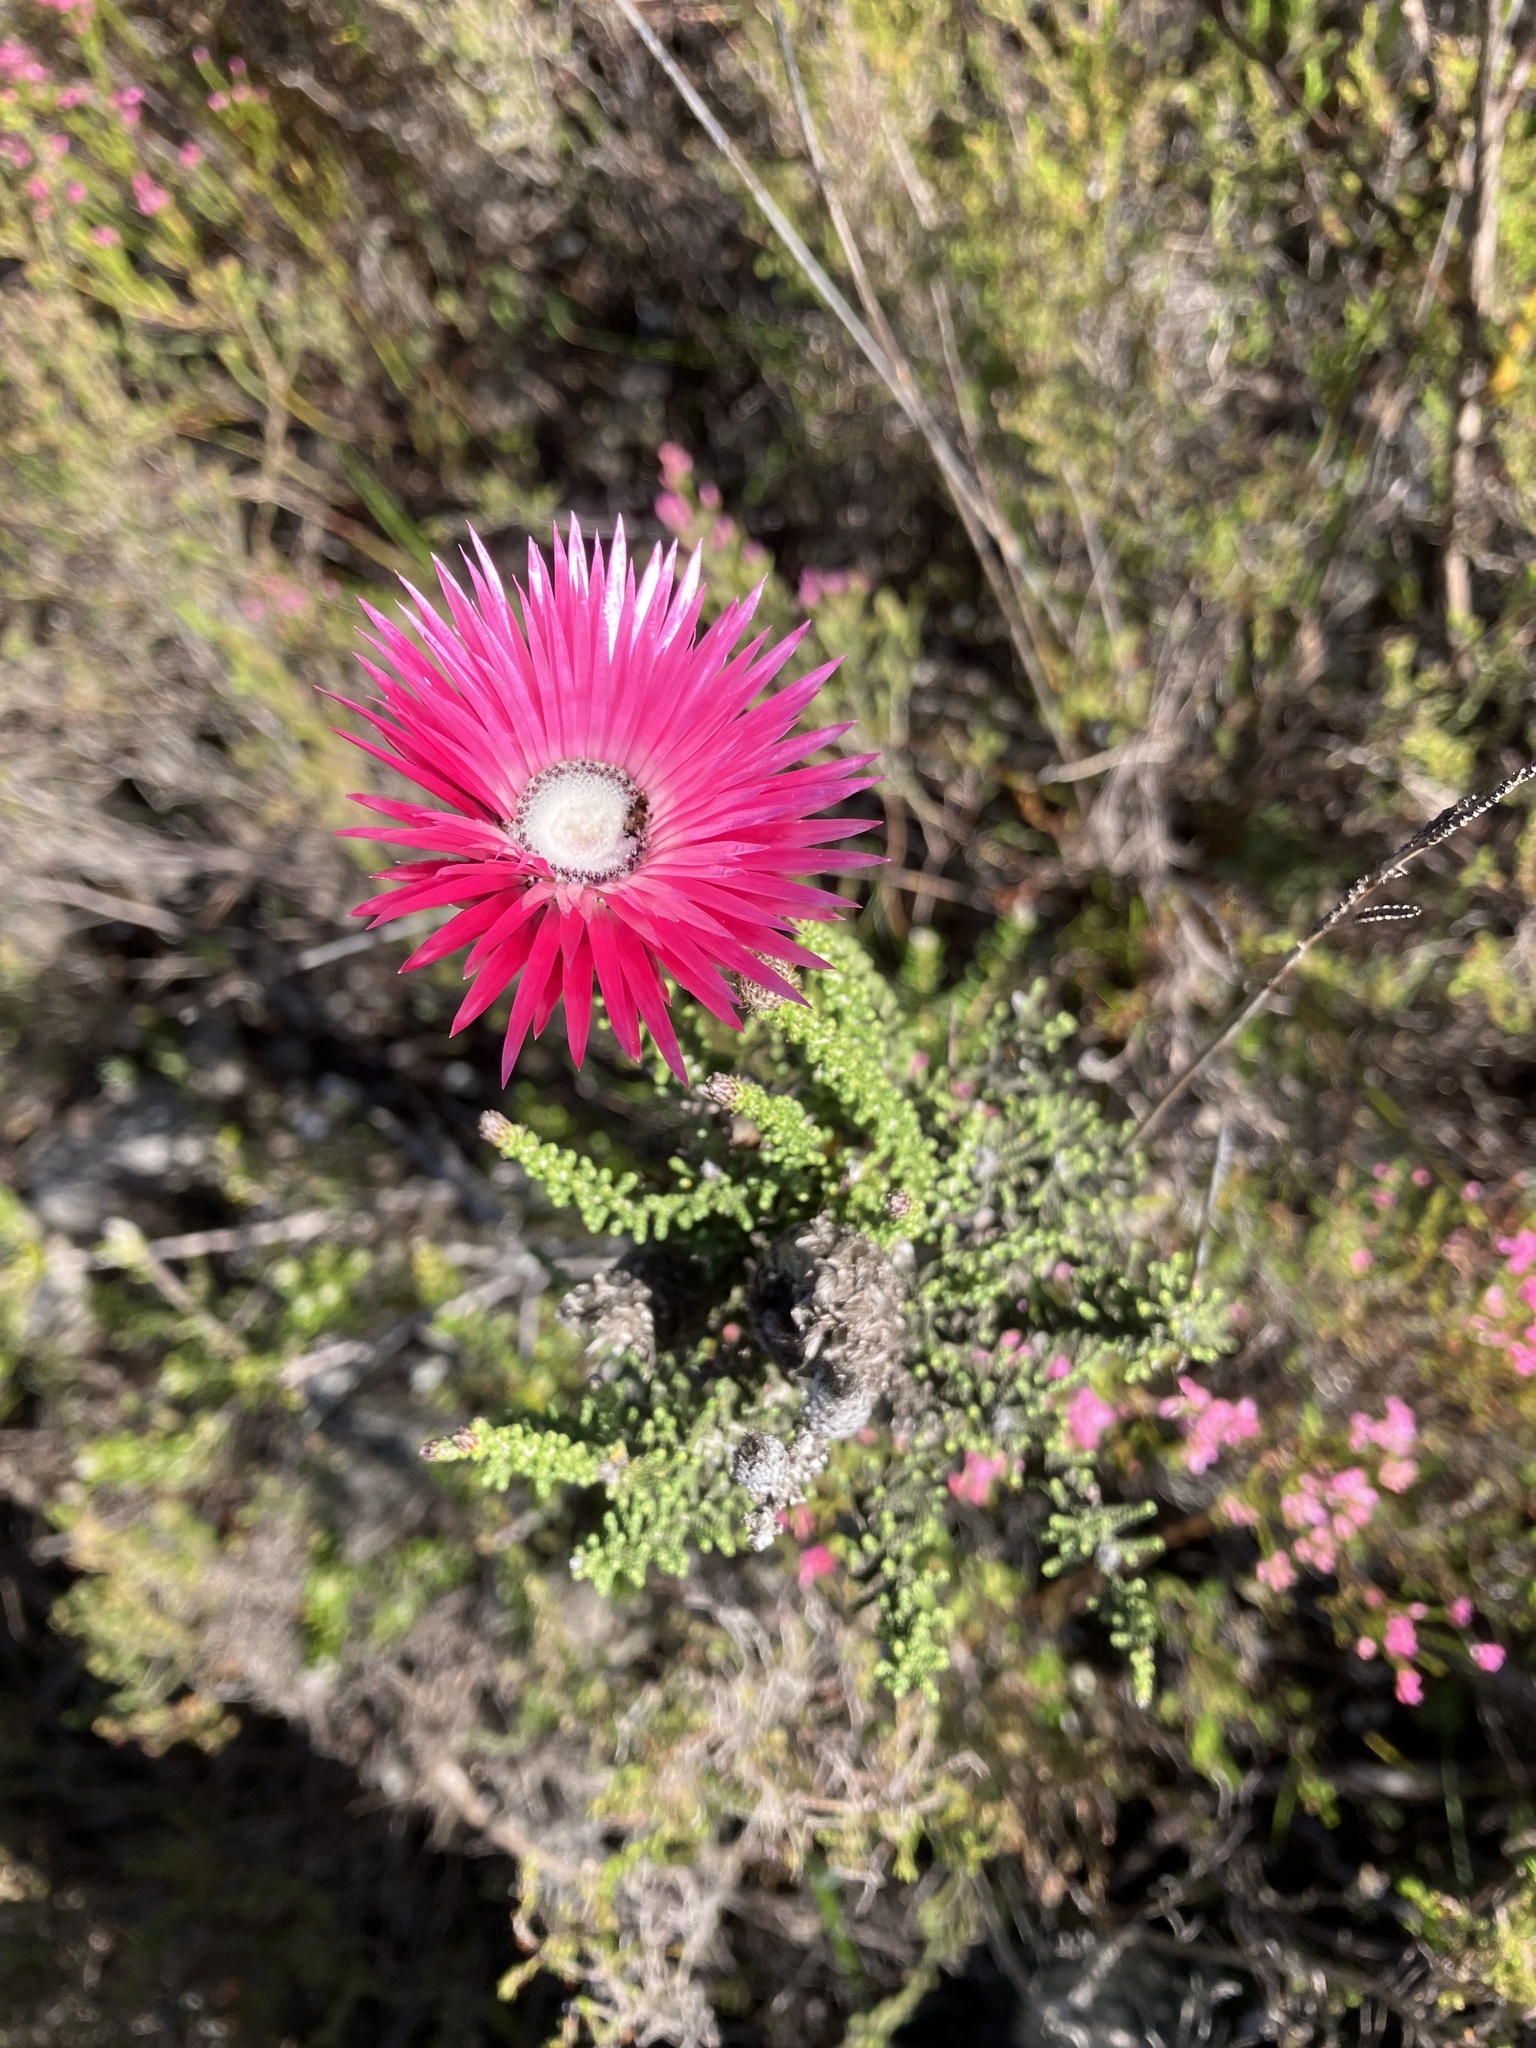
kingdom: Plantae
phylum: Tracheophyta
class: Magnoliopsida
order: Asterales
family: Asteraceae
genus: Phaenocoma
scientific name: Phaenocoma prolifera
